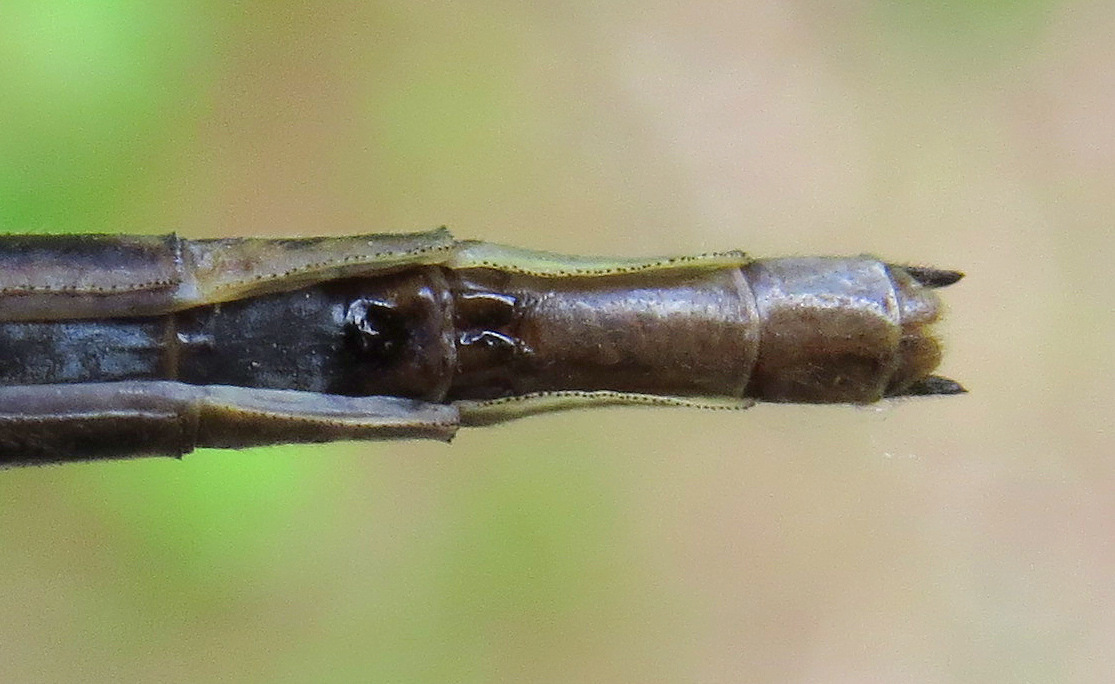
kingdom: Animalia
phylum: Arthropoda
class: Insecta
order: Odonata
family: Gomphidae
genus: Phanogomphus
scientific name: Phanogomphus spicatus
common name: Dusky clubtail
